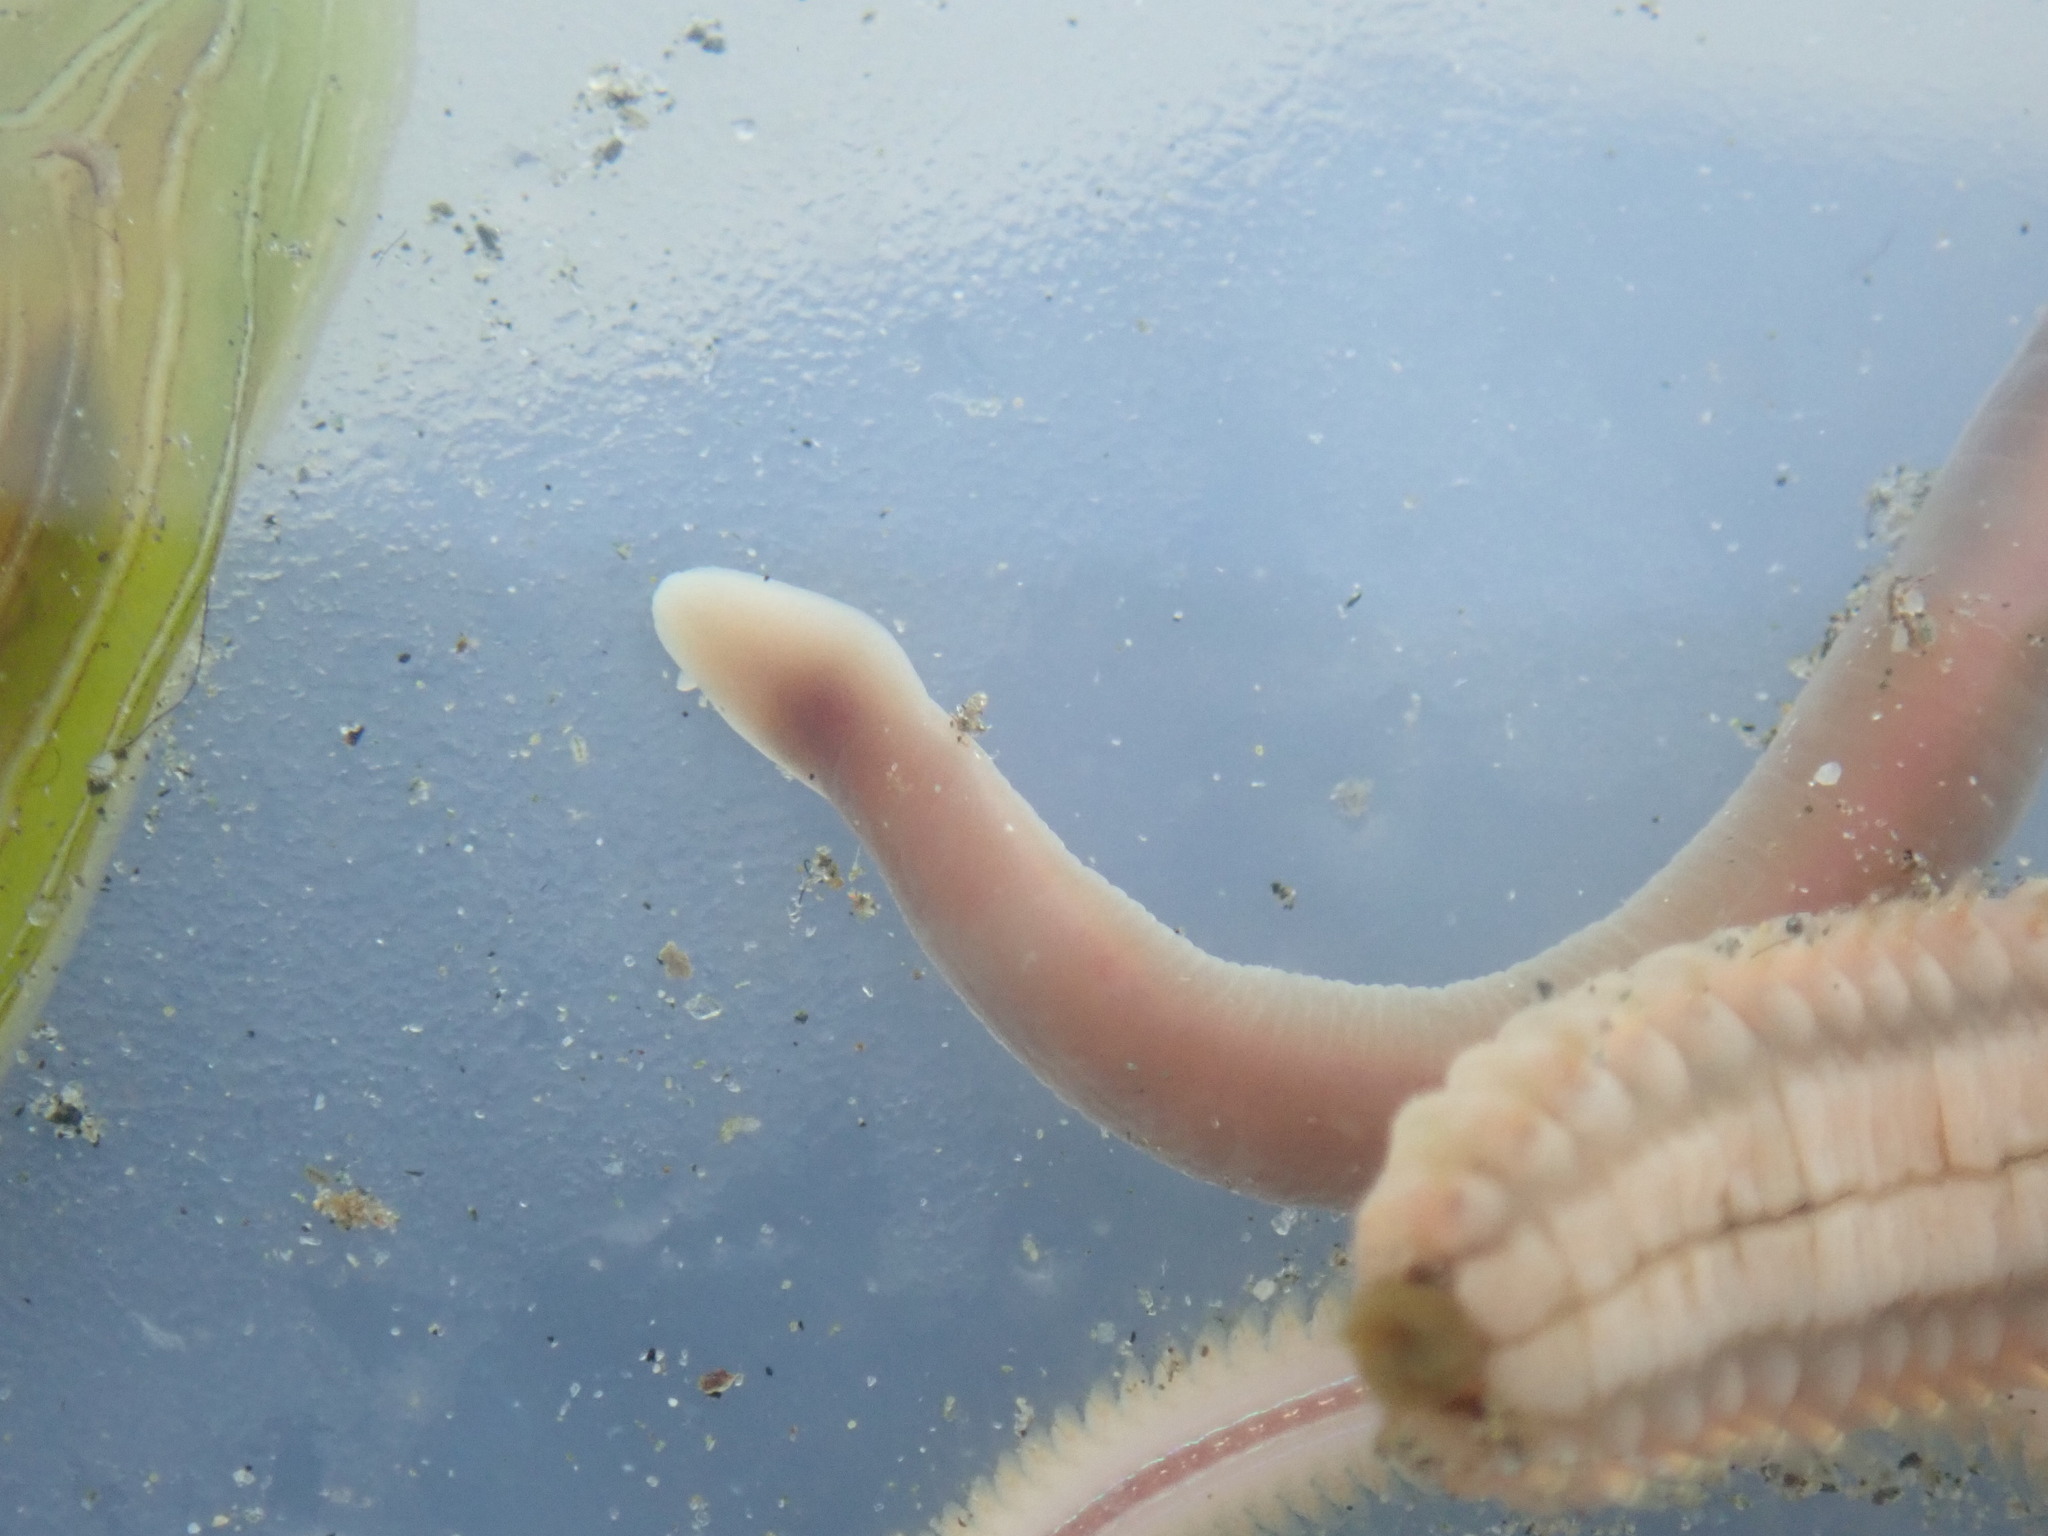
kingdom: Animalia
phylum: Nemertea
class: Hoplonemertea
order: Monostilifera
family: Neesiidae
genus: Paranemertes
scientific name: Paranemertes peregrina
